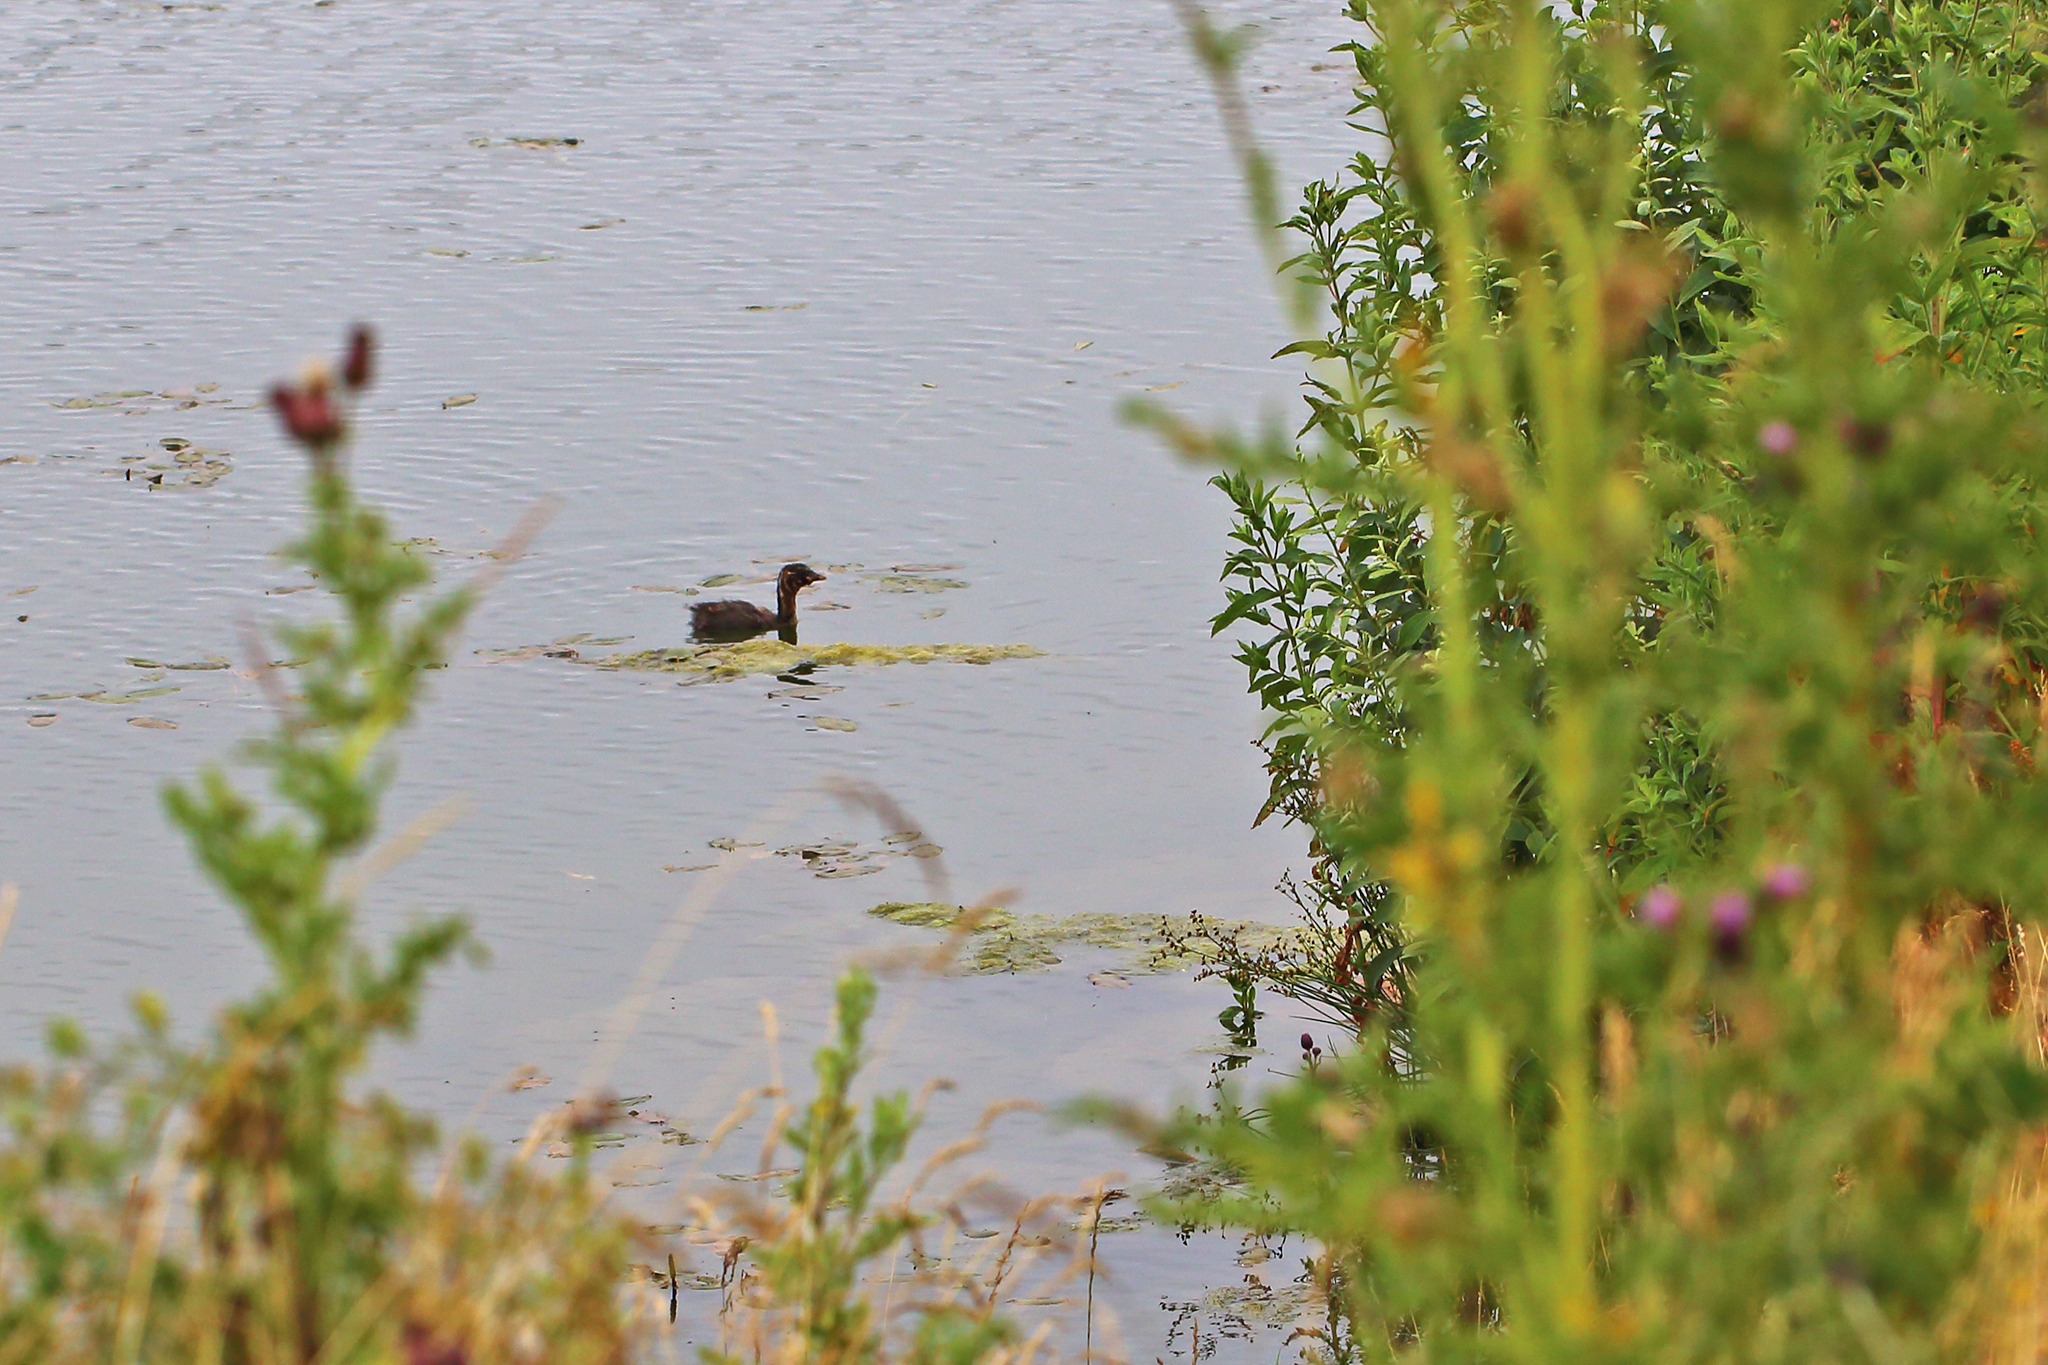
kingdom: Animalia
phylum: Chordata
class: Aves
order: Podicipediformes
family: Podicipedidae
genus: Tachybaptus
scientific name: Tachybaptus ruficollis
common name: Little grebe
